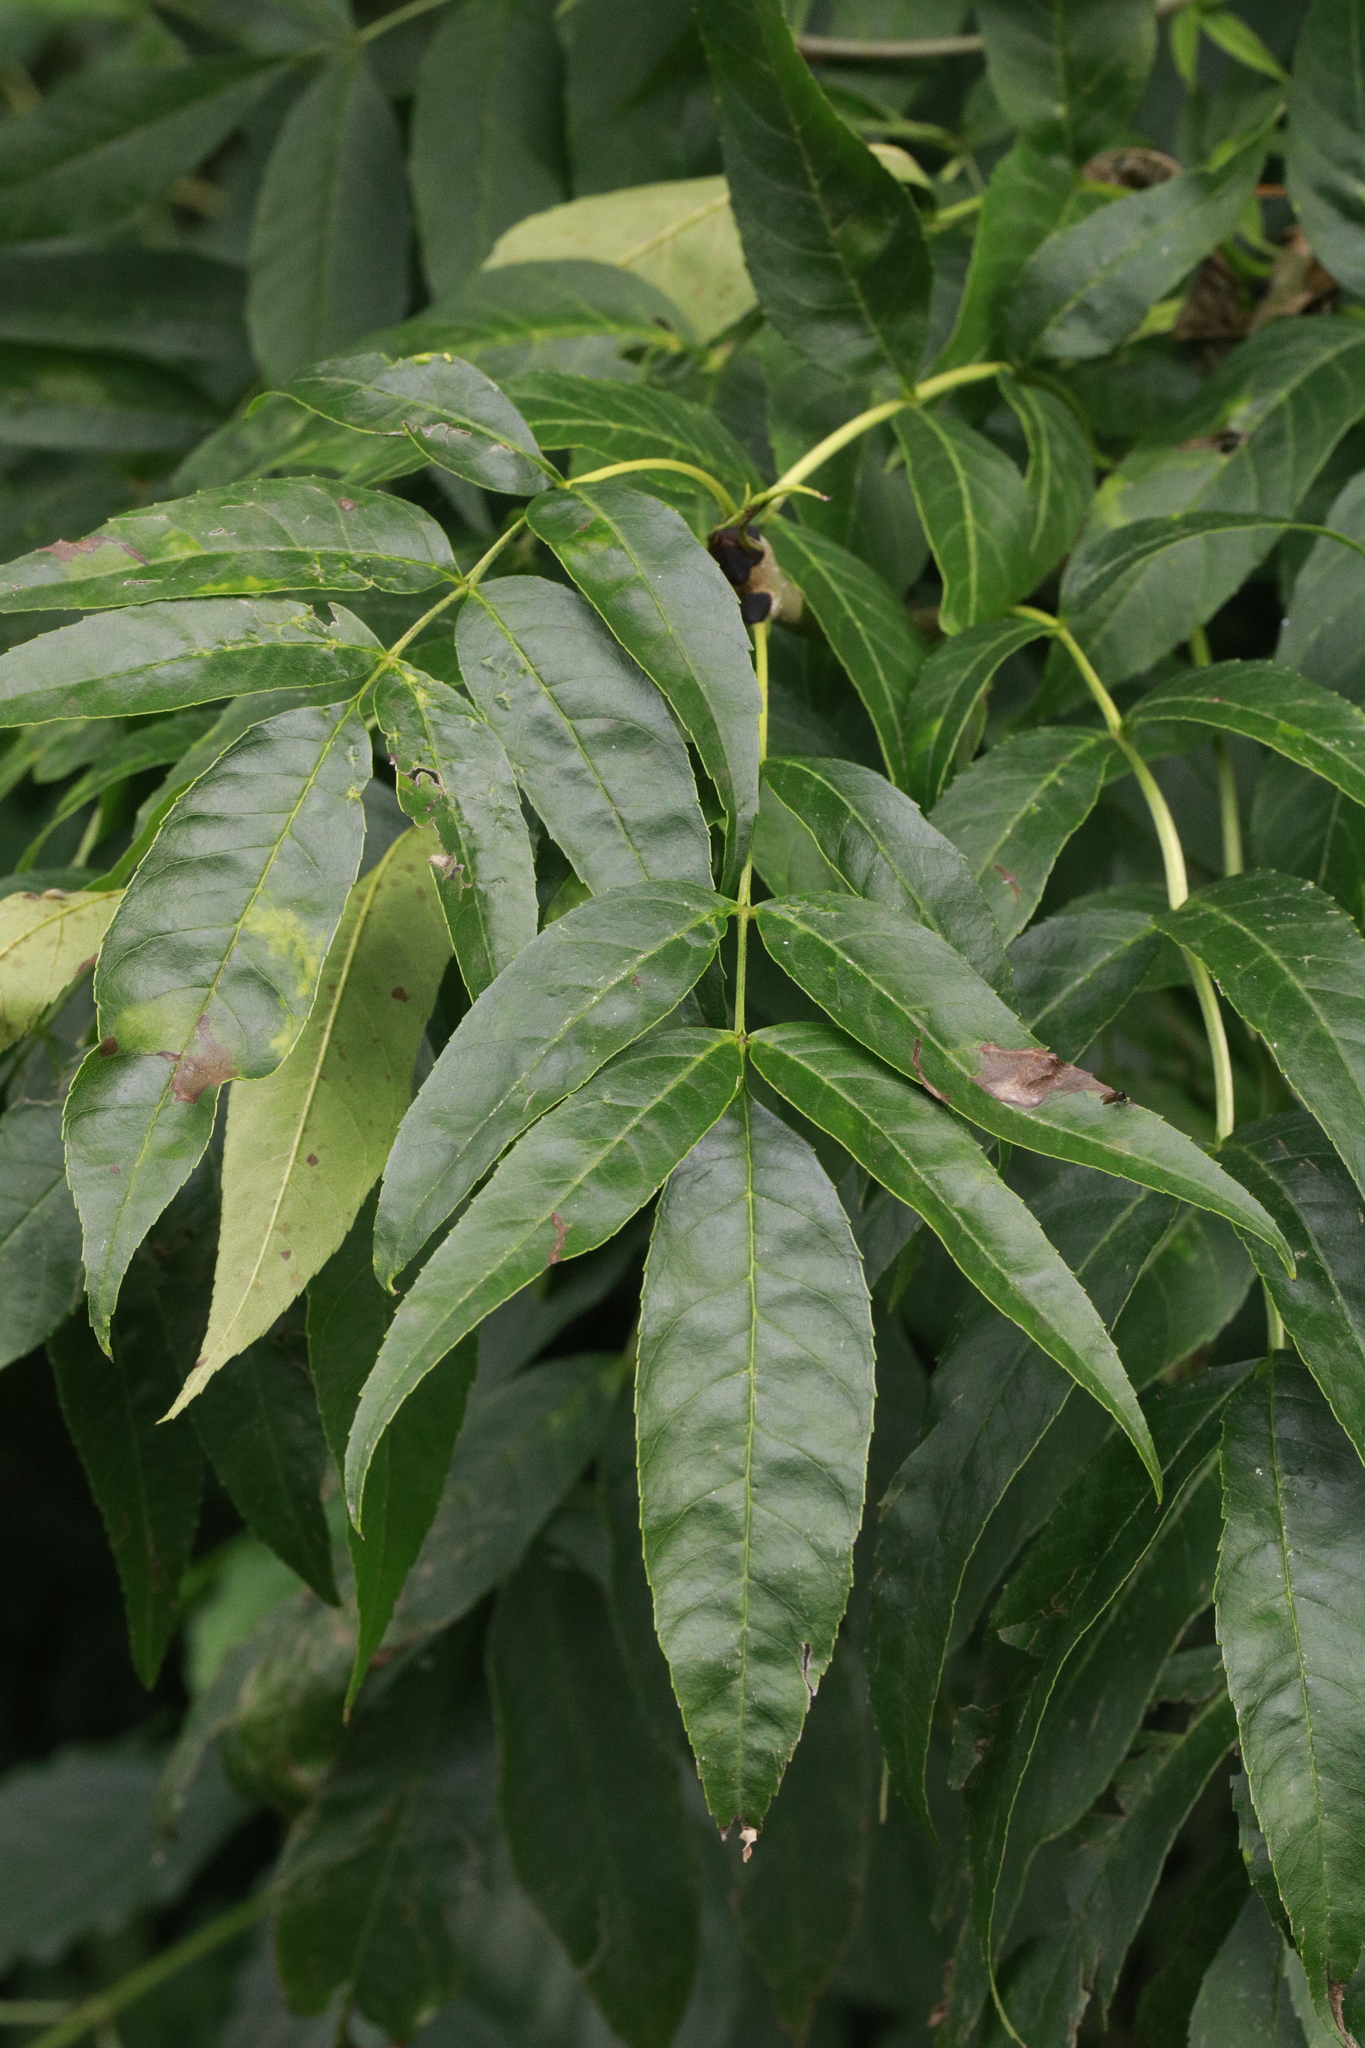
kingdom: Plantae
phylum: Tracheophyta
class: Magnoliopsida
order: Lamiales
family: Oleaceae
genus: Fraxinus
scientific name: Fraxinus excelsior
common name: European ash
